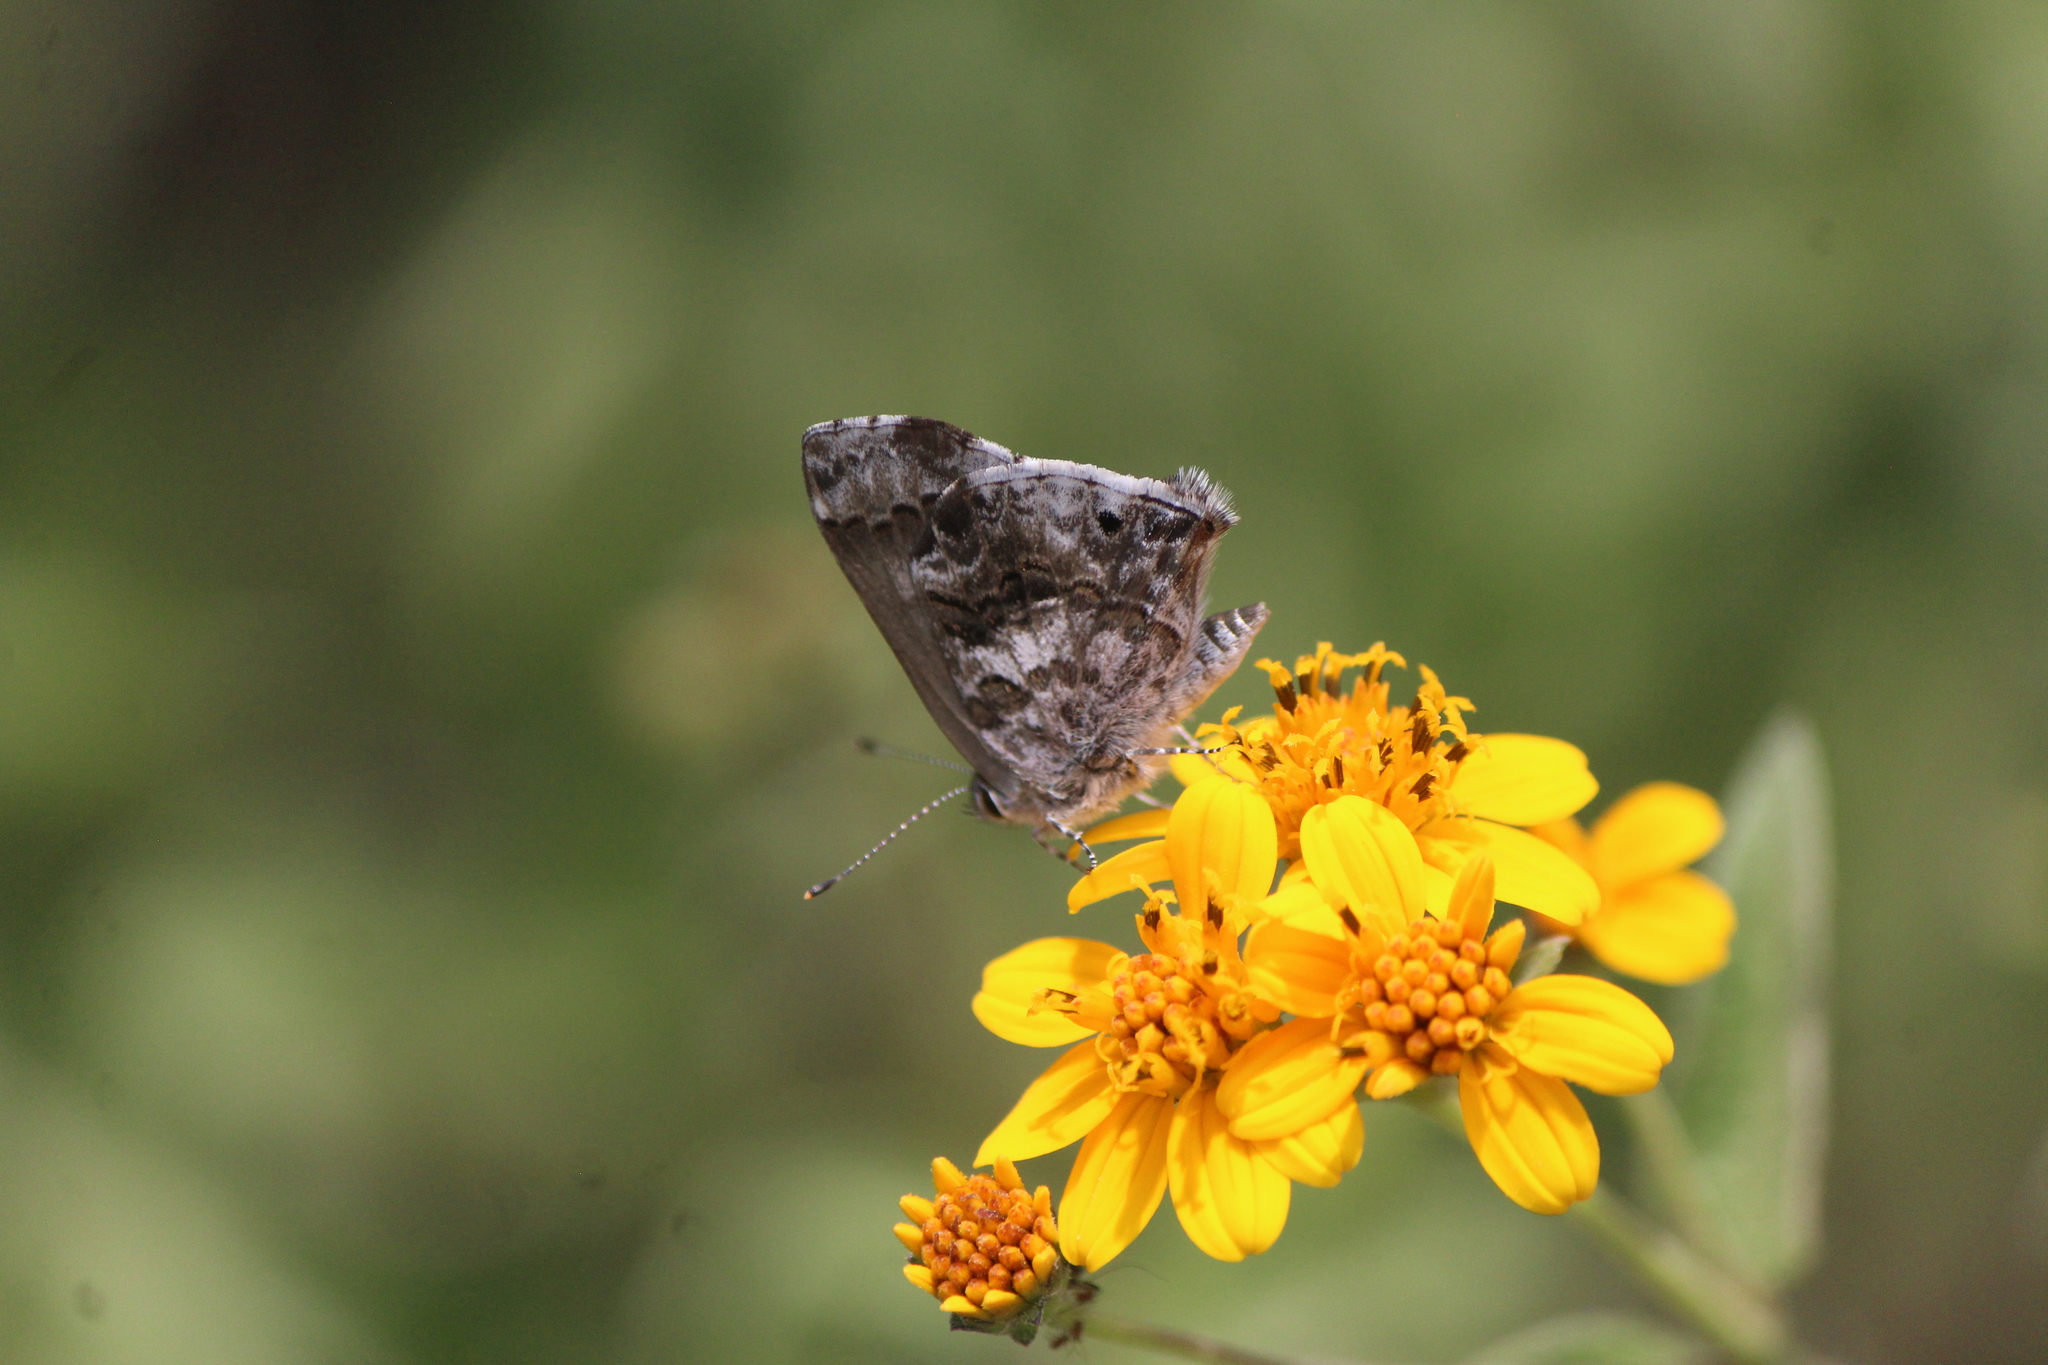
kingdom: Animalia
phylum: Arthropoda
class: Insecta
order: Lepidoptera
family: Lycaenidae
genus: Thecla
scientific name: Thecla cestri
